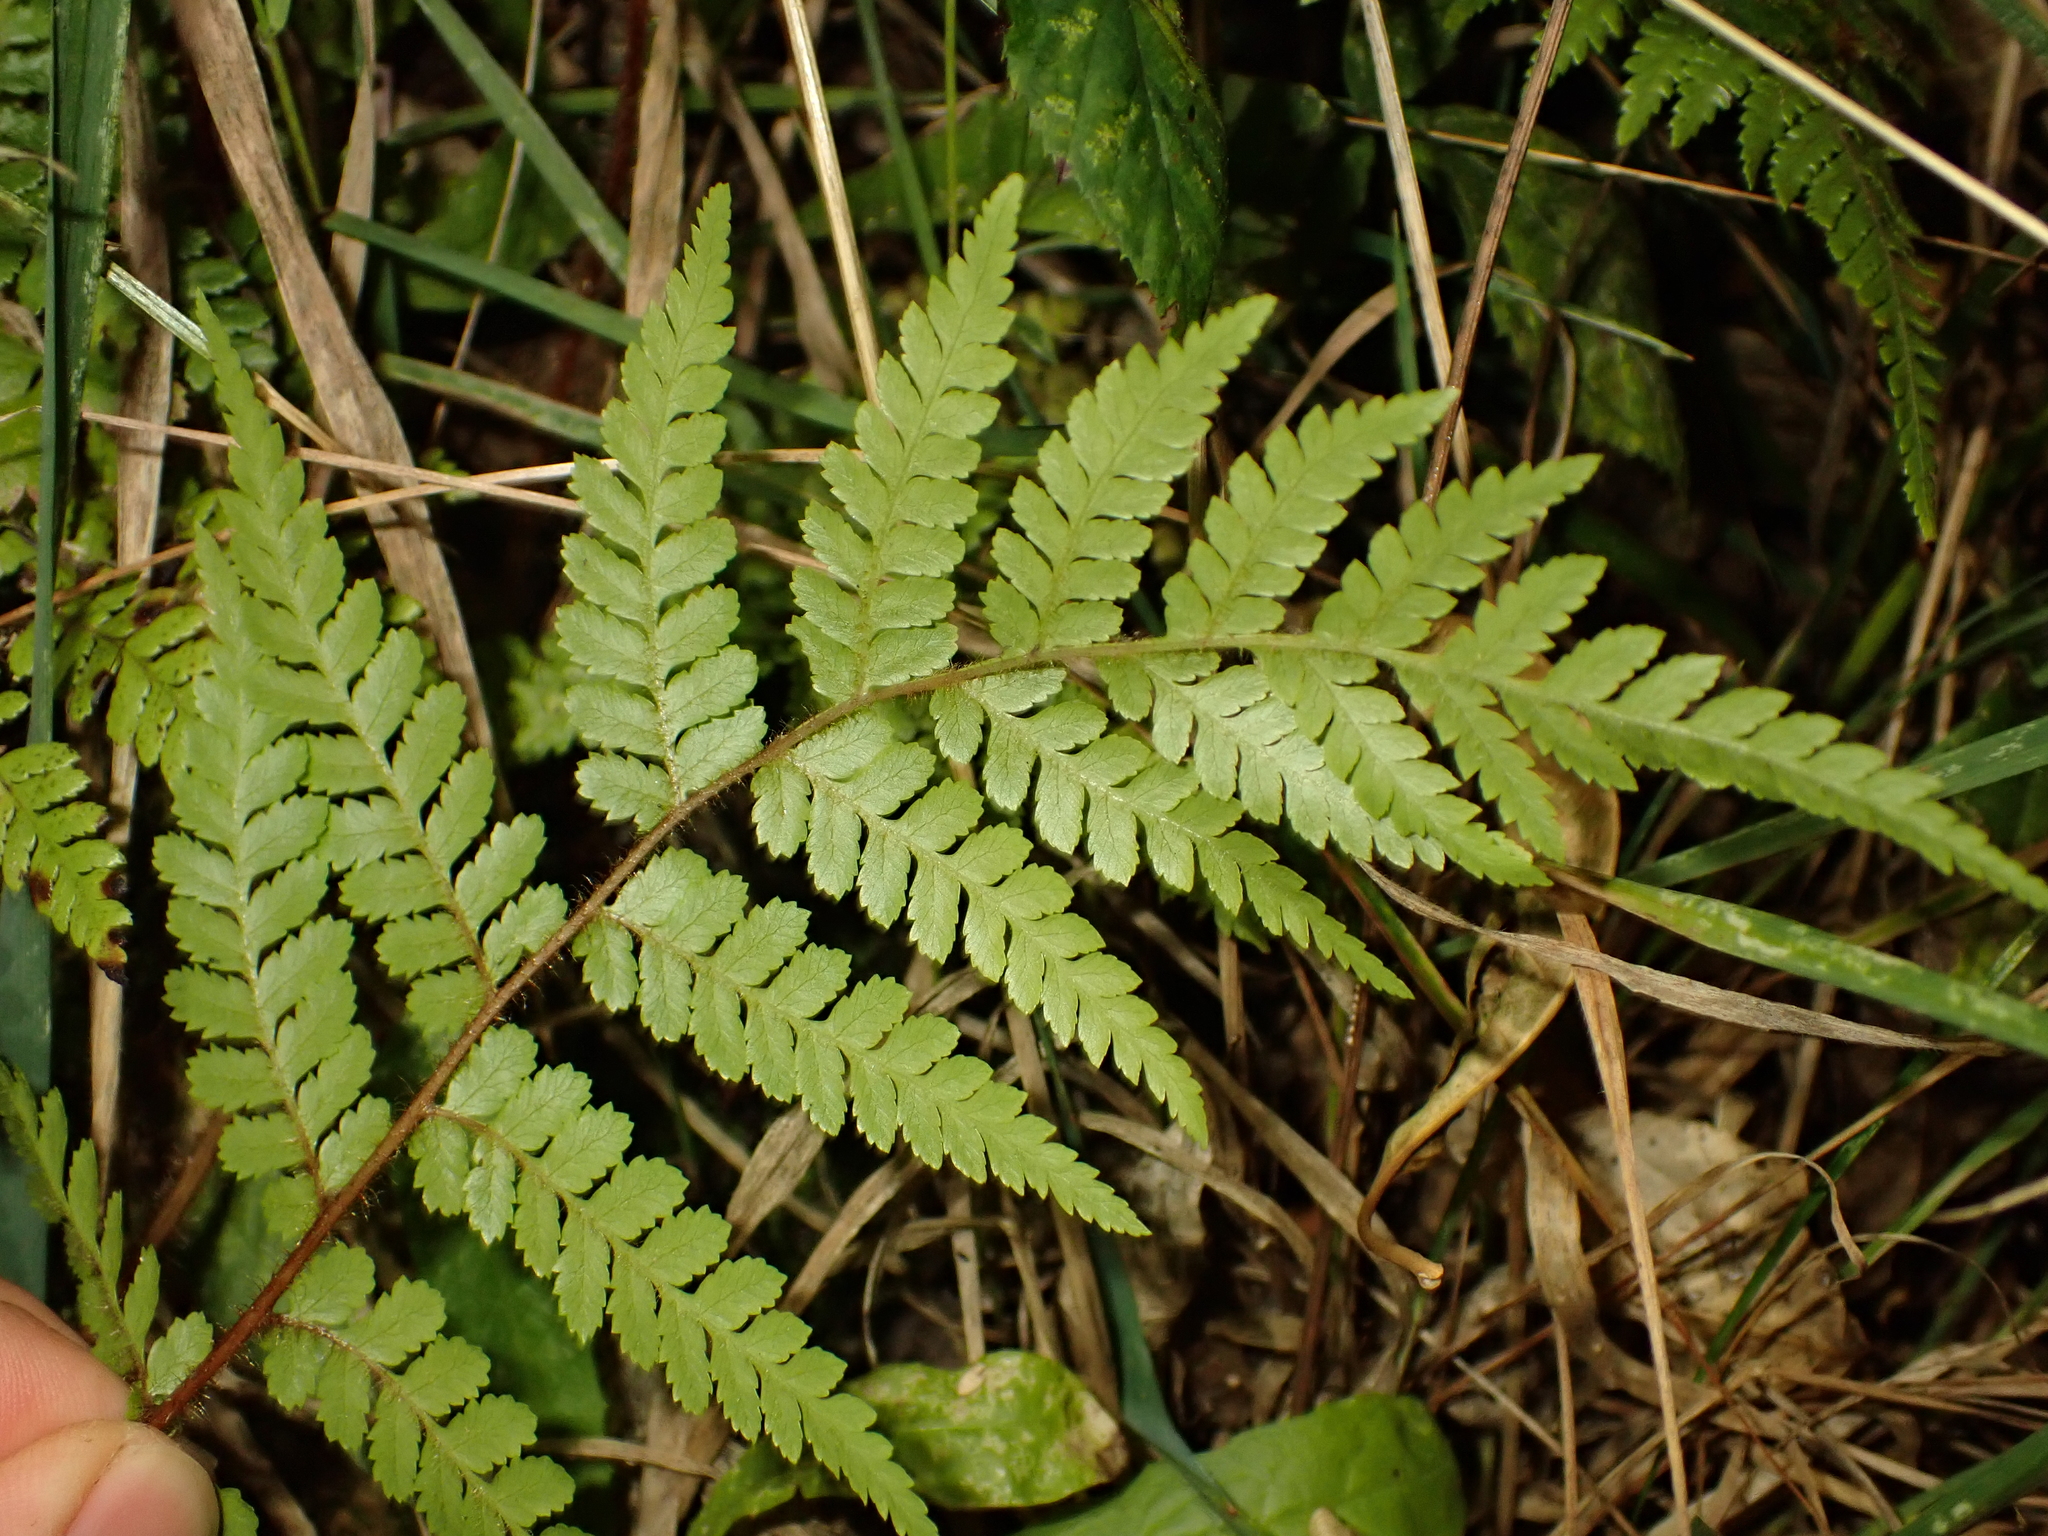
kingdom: Plantae
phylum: Tracheophyta
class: Polypodiopsida
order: Cyatheales
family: Dicksoniaceae
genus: Dicksonia
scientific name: Dicksonia squarrosa
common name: Hard treefern
